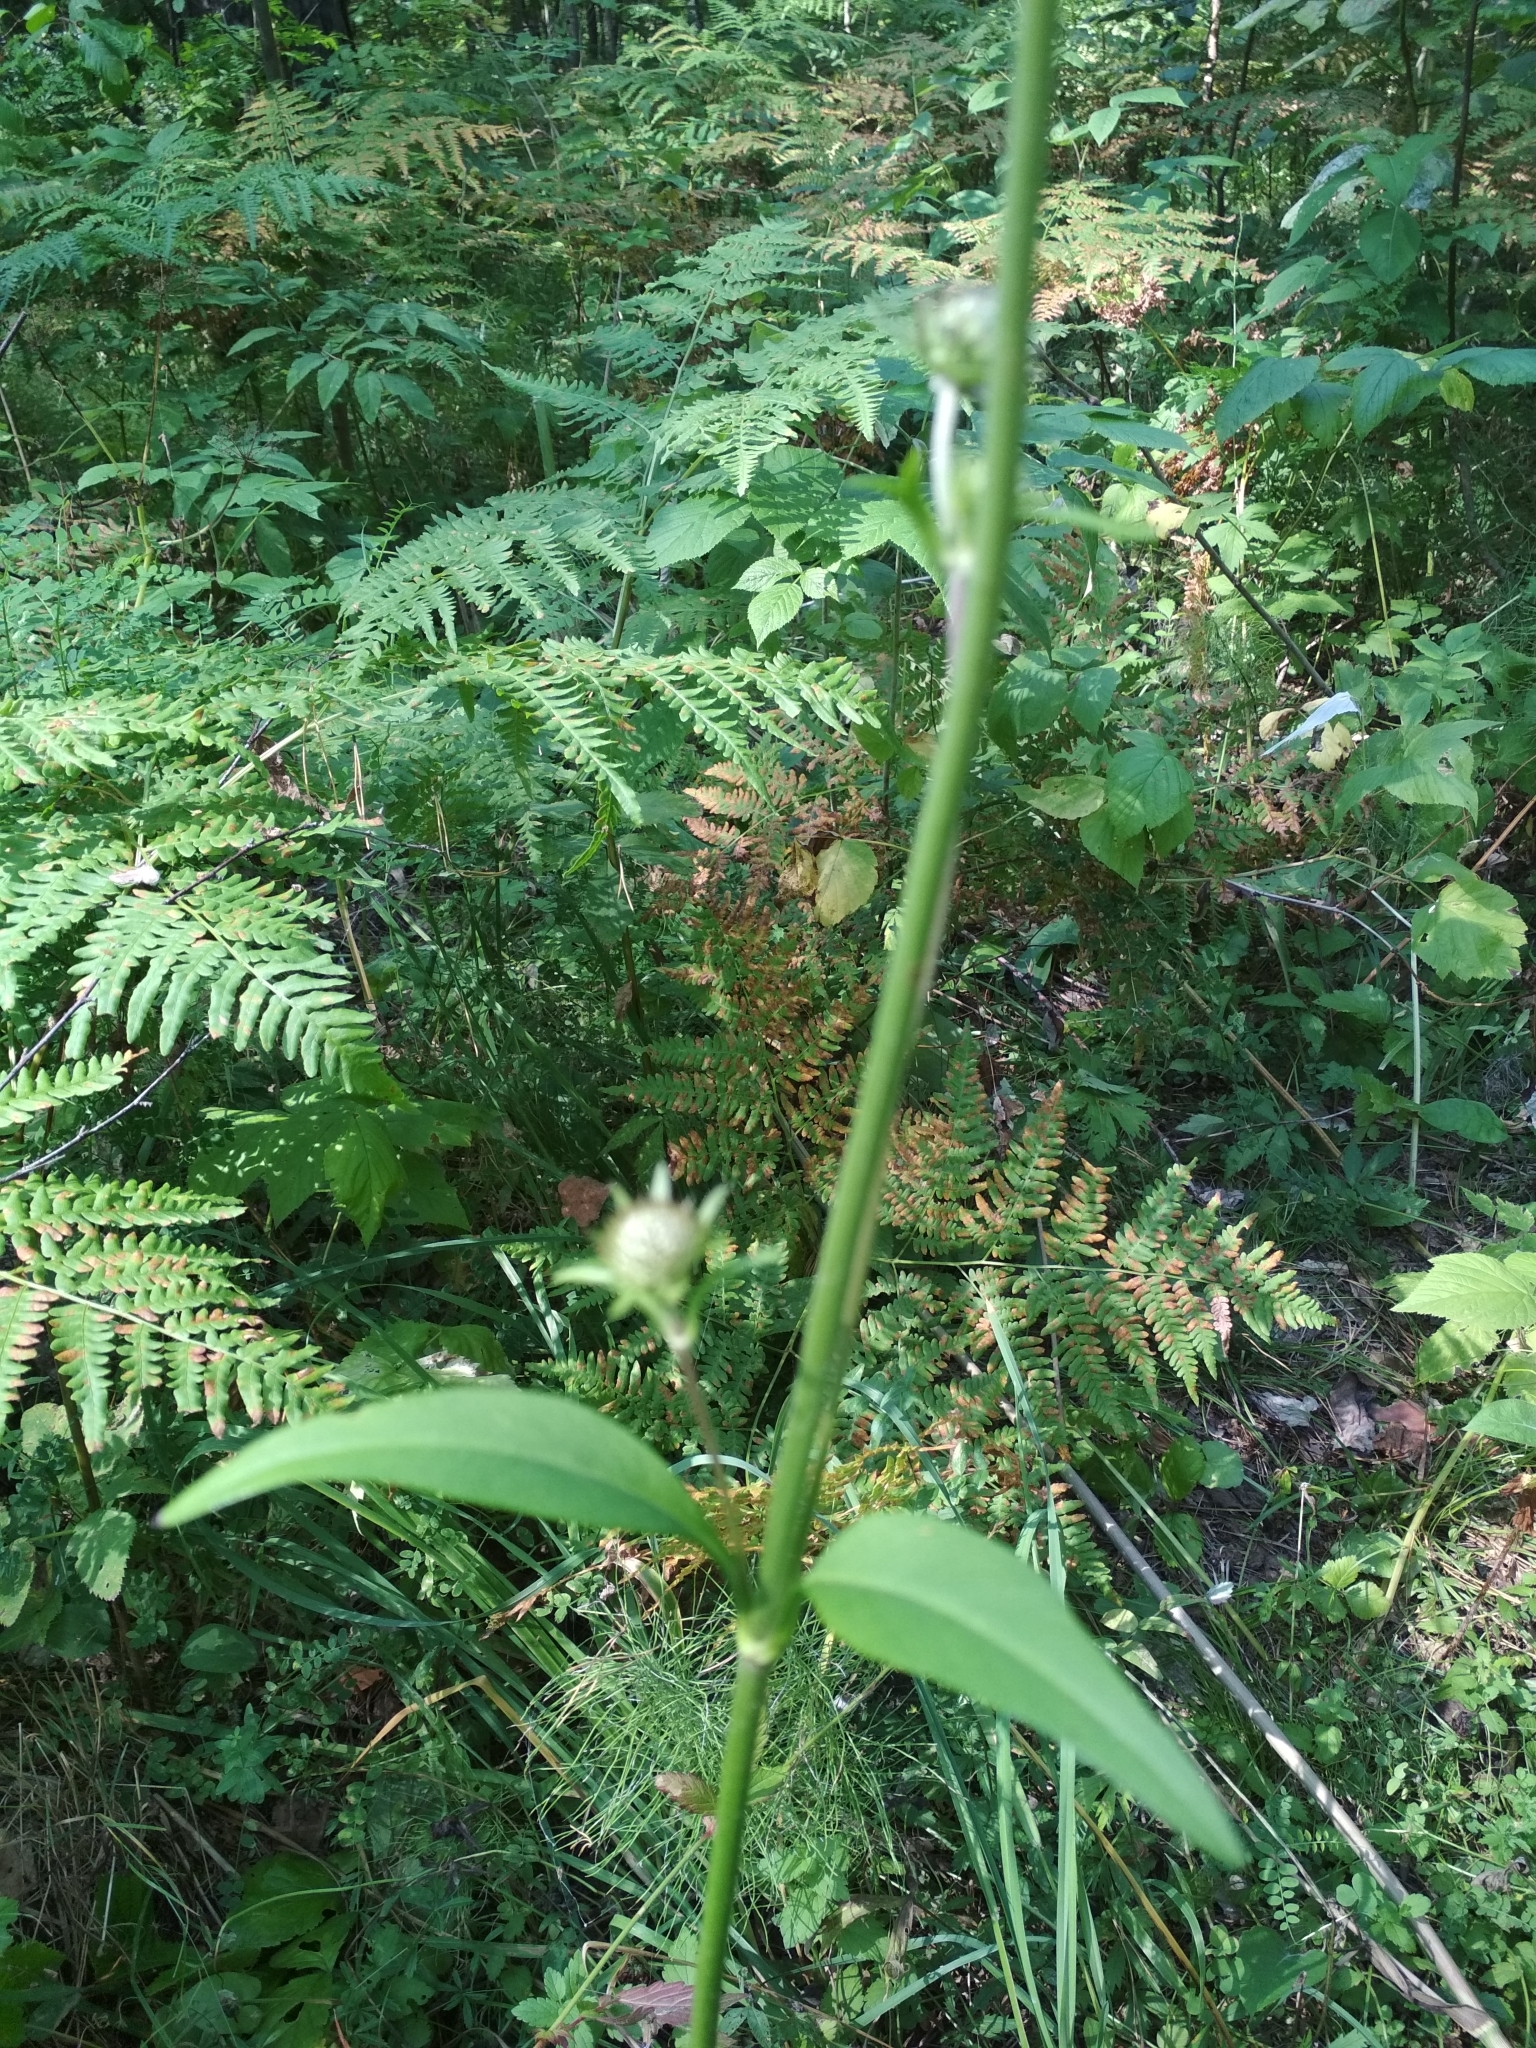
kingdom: Plantae
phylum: Tracheophyta
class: Magnoliopsida
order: Dipsacales
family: Caprifoliaceae
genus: Succisa
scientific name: Succisa pratensis
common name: Devil's-bit
